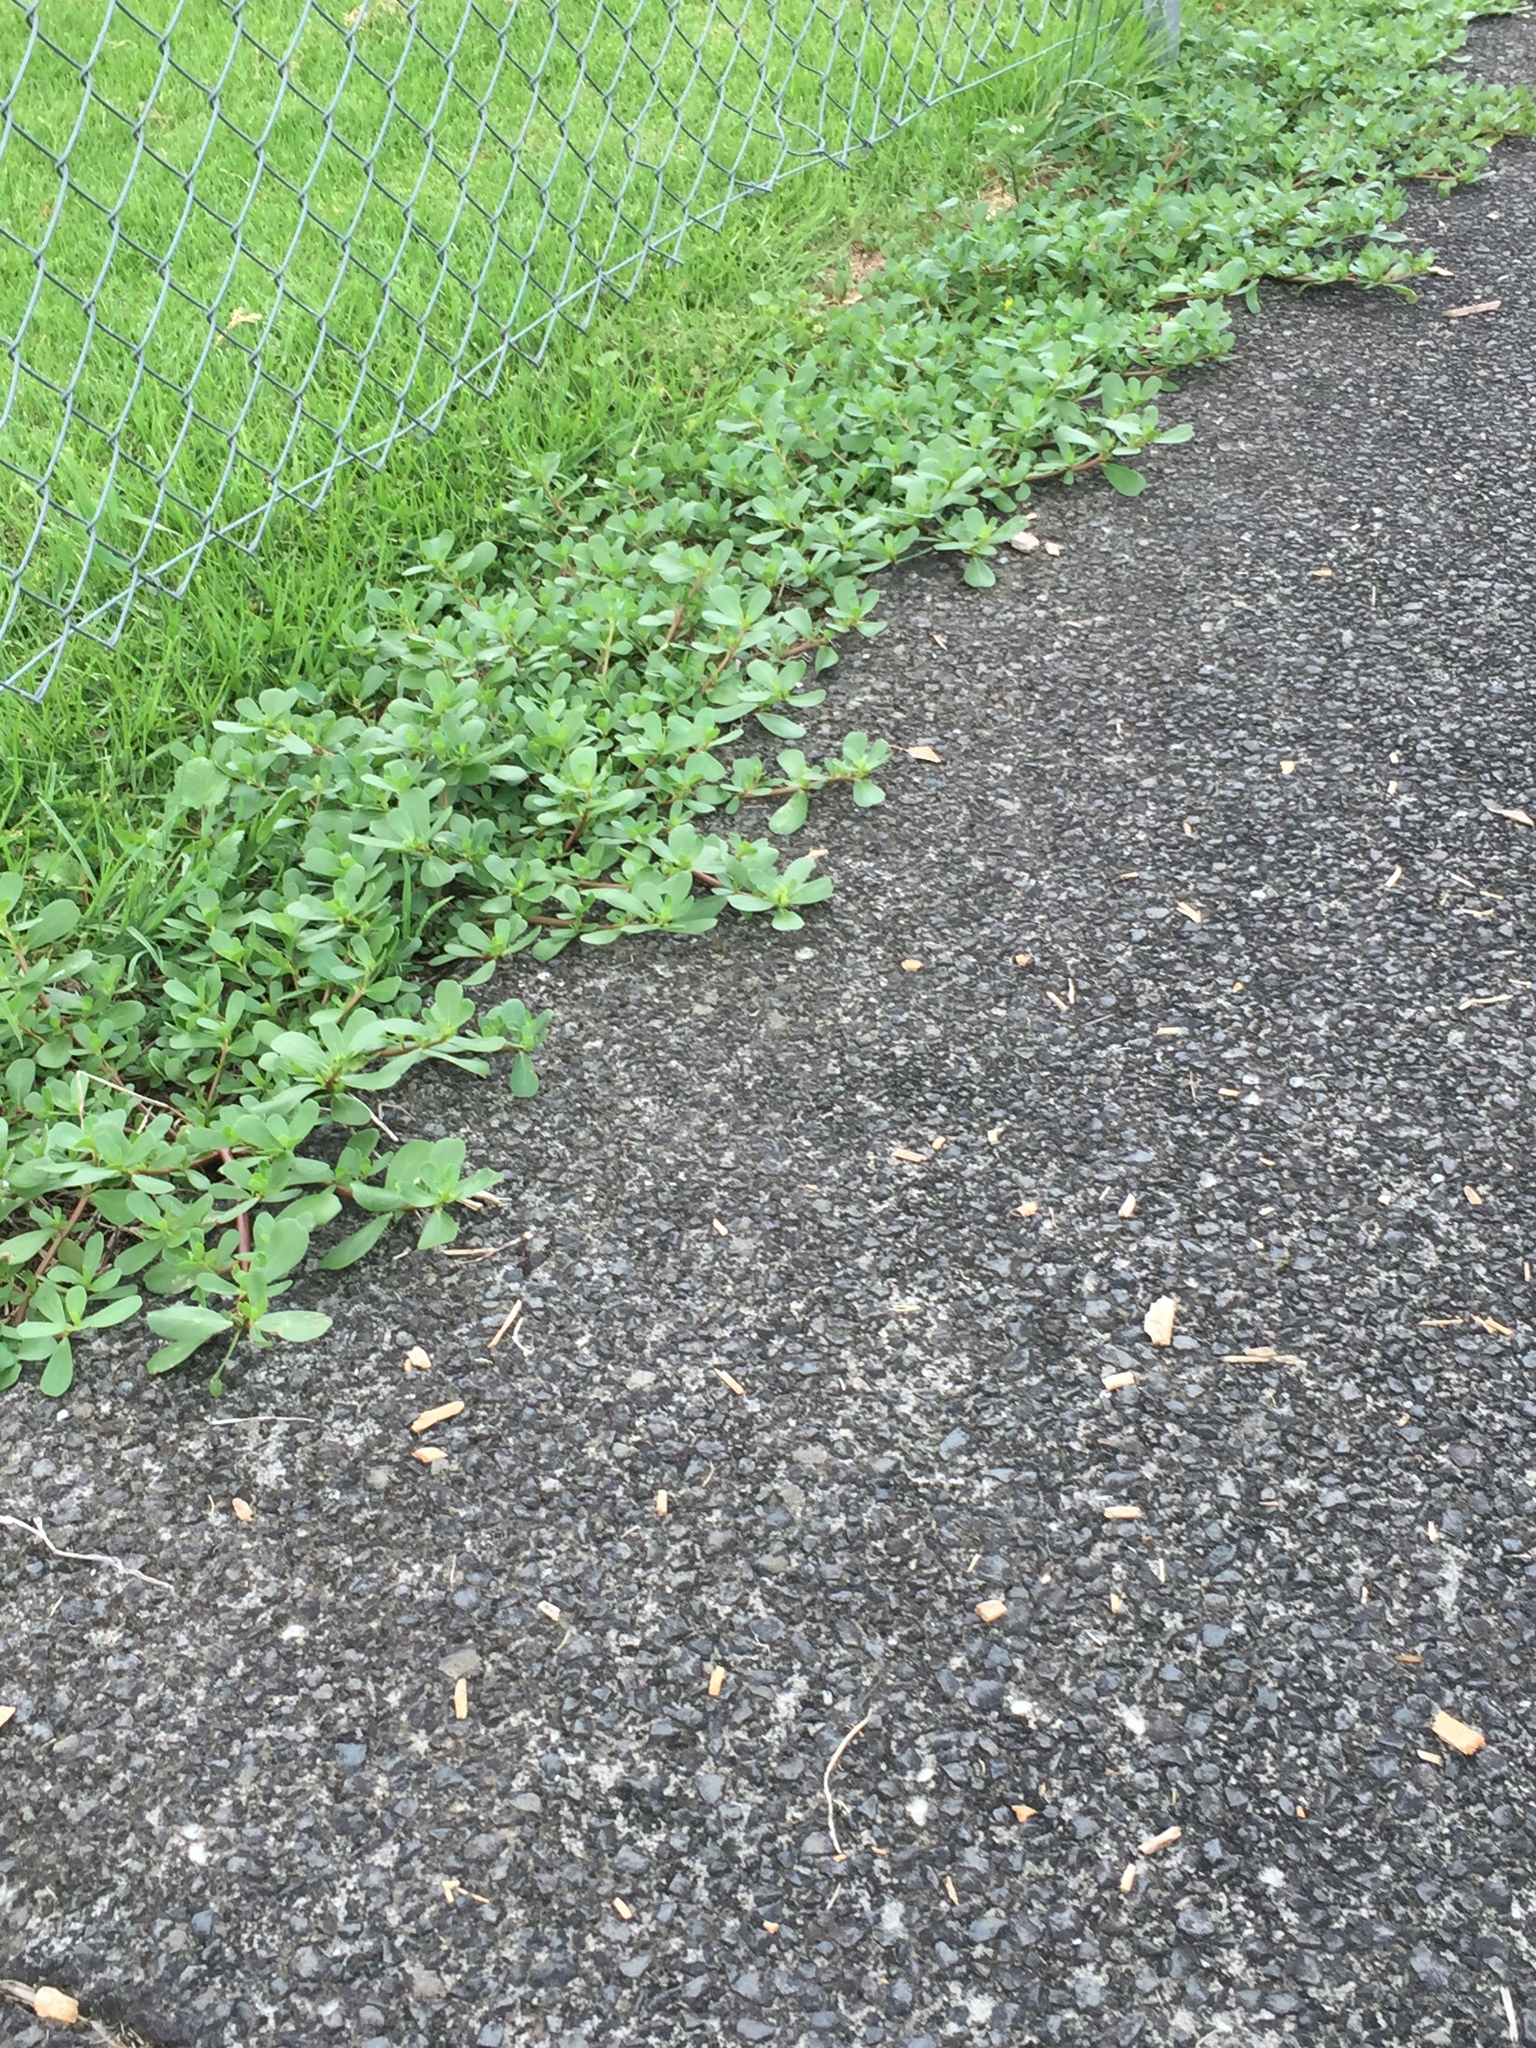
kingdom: Plantae
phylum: Tracheophyta
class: Magnoliopsida
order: Caryophyllales
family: Portulacaceae
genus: Portulaca
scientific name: Portulaca oleracea
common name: Common purslane
